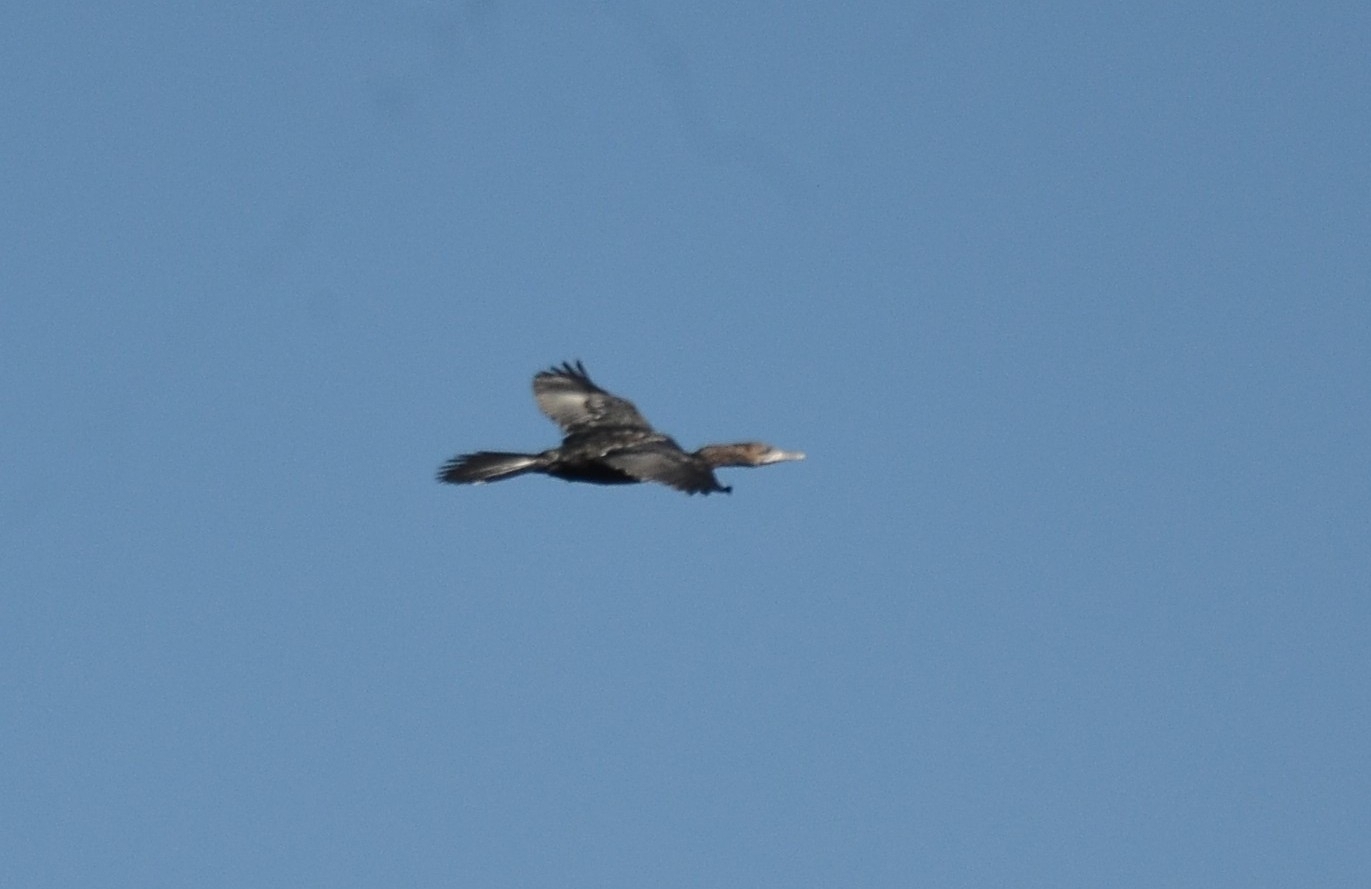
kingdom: Animalia
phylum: Chordata
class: Aves
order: Suliformes
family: Phalacrocoracidae
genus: Microcarbo
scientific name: Microcarbo niger
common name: Little cormorant
